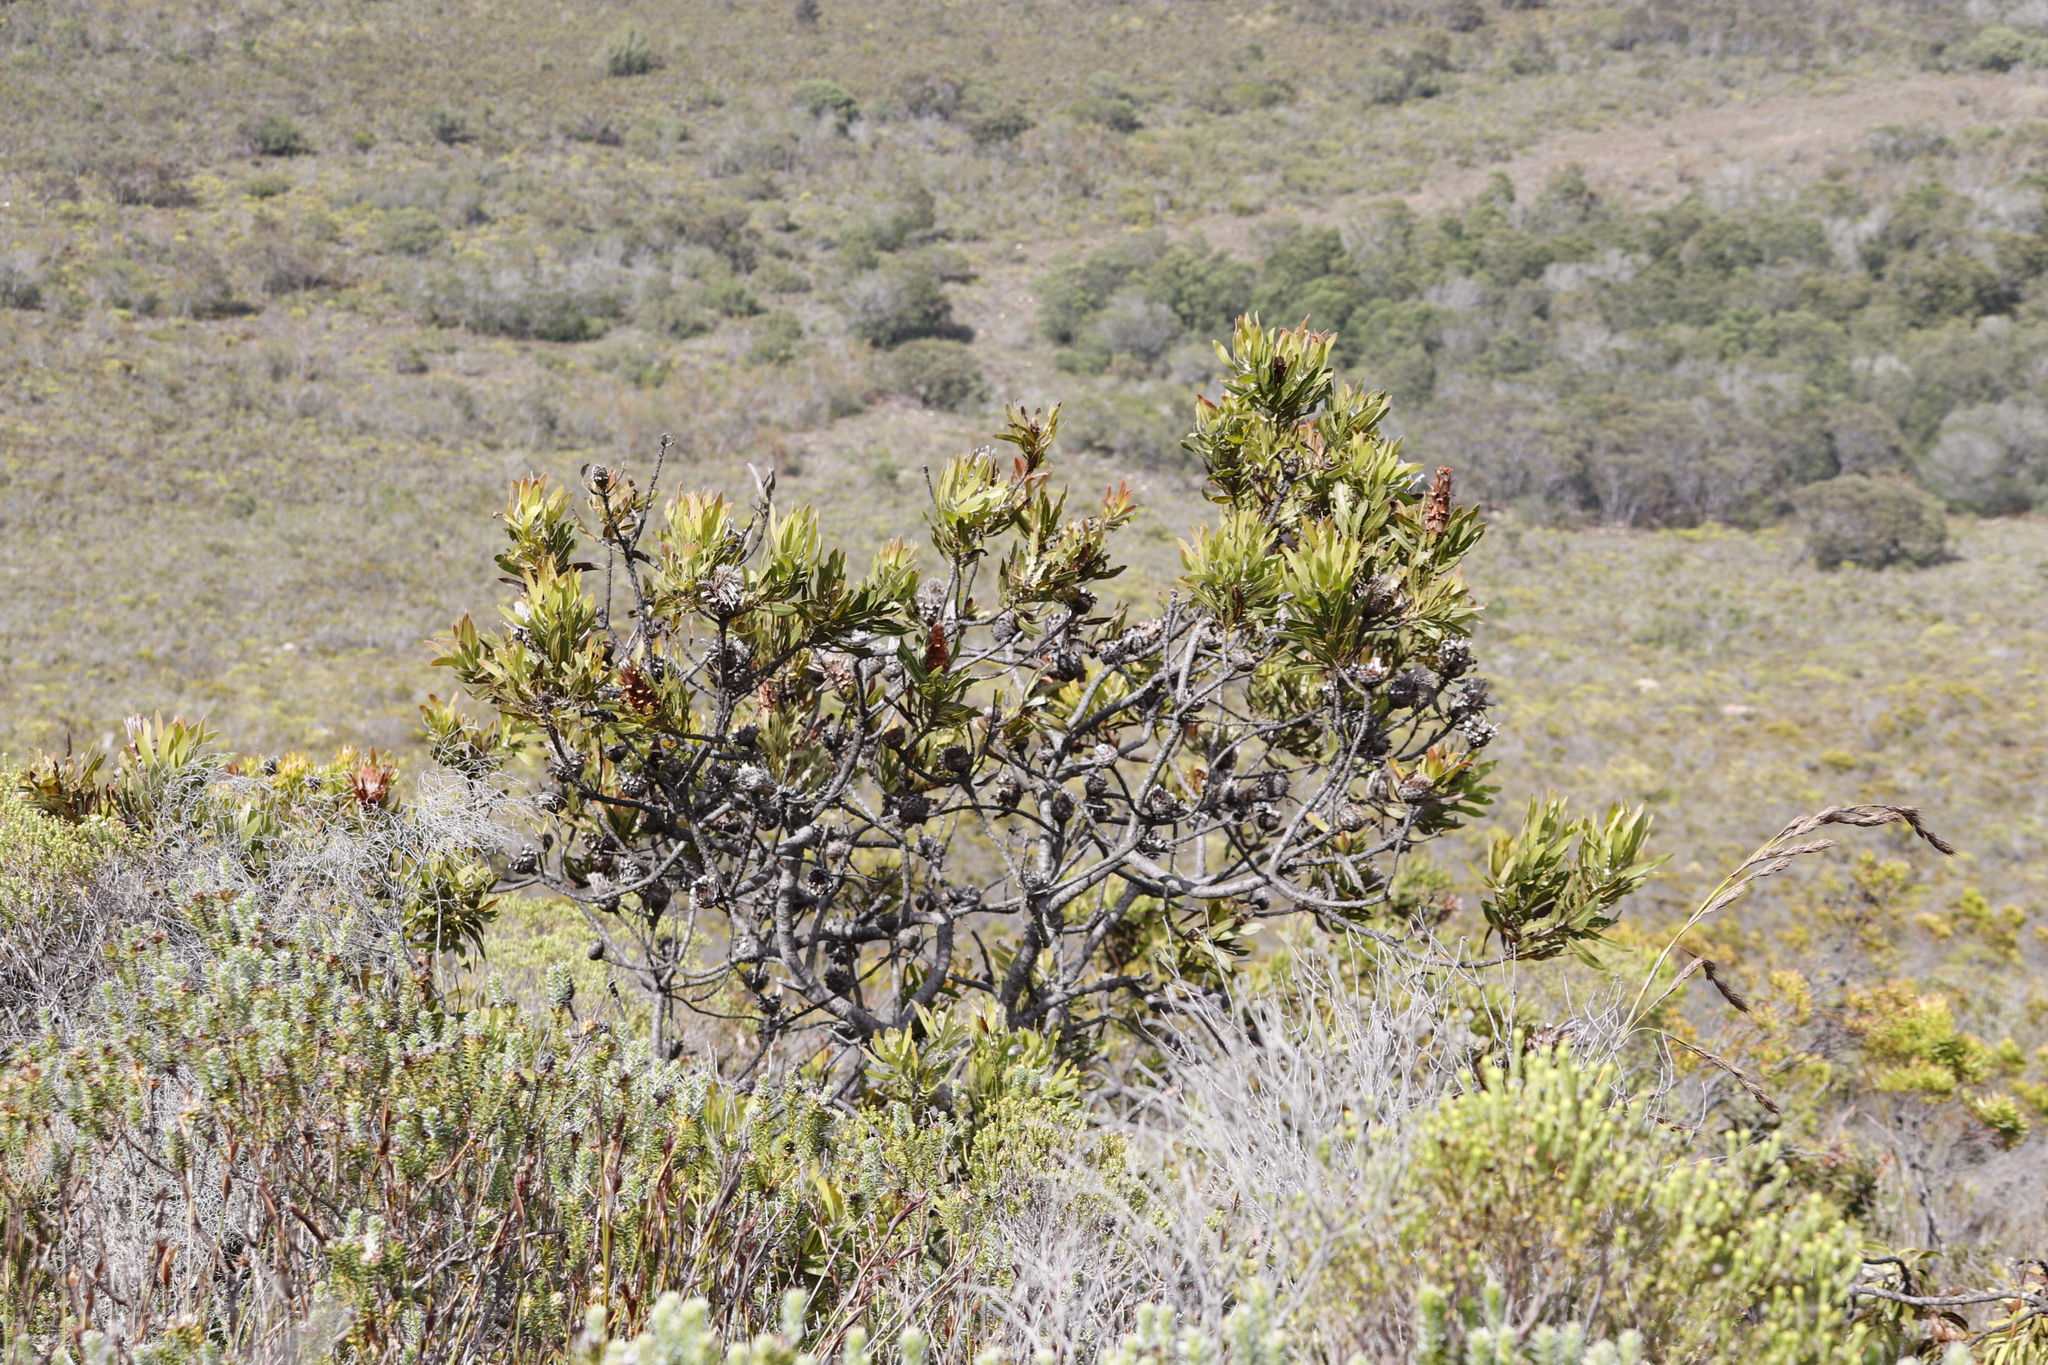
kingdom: Plantae
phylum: Tracheophyta
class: Magnoliopsida
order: Proteales
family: Proteaceae
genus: Protea
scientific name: Protea neriifolia
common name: Blue sugarbush
